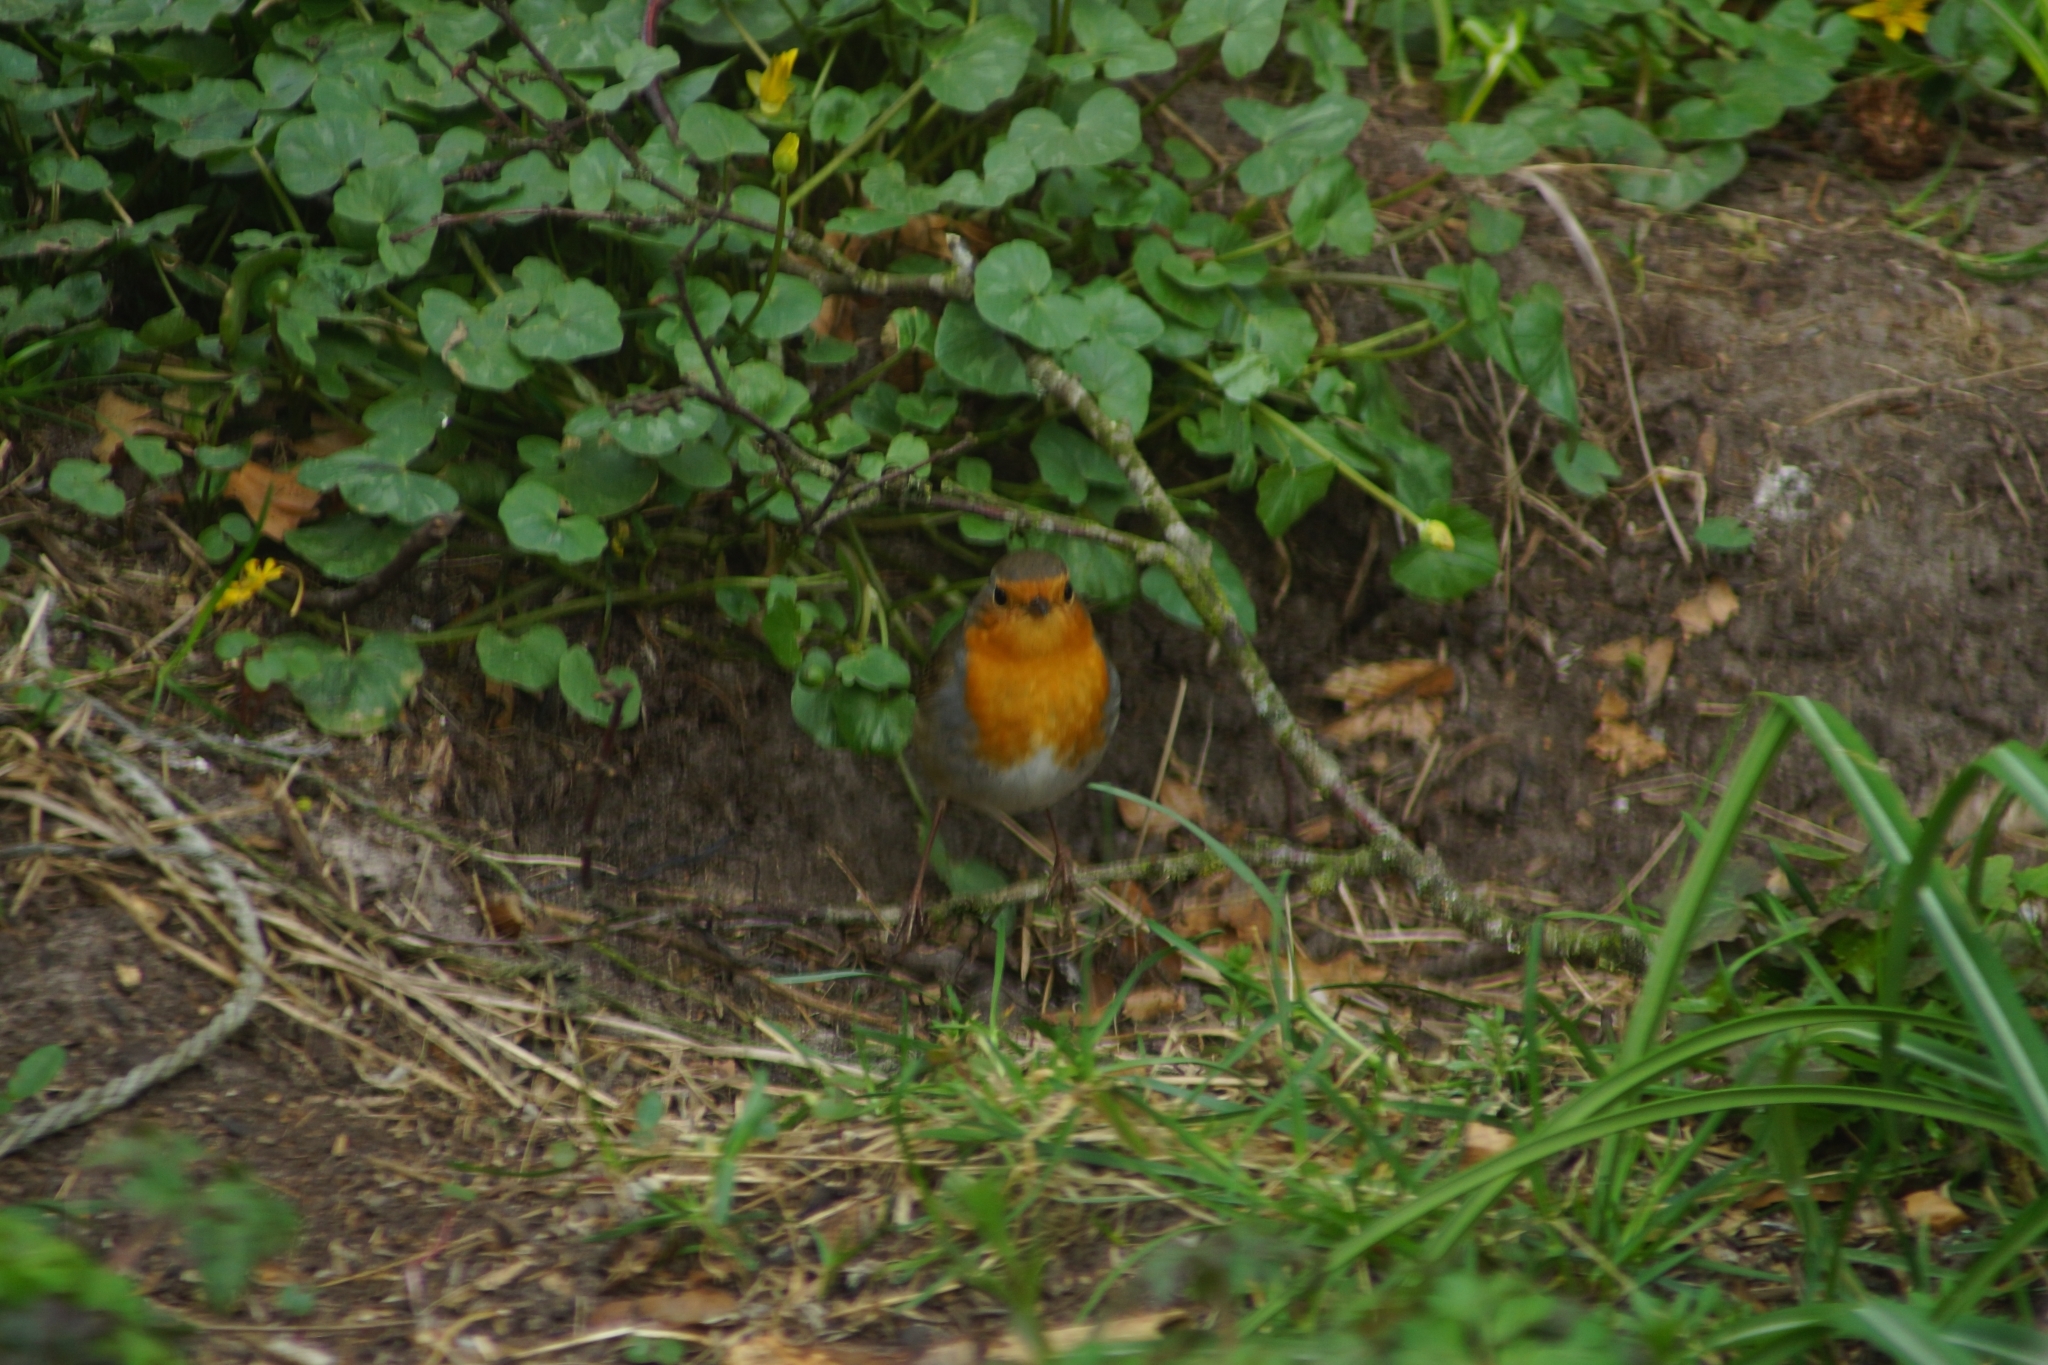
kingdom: Animalia
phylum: Chordata
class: Aves
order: Passeriformes
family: Muscicapidae
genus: Erithacus
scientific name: Erithacus rubecula
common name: European robin
